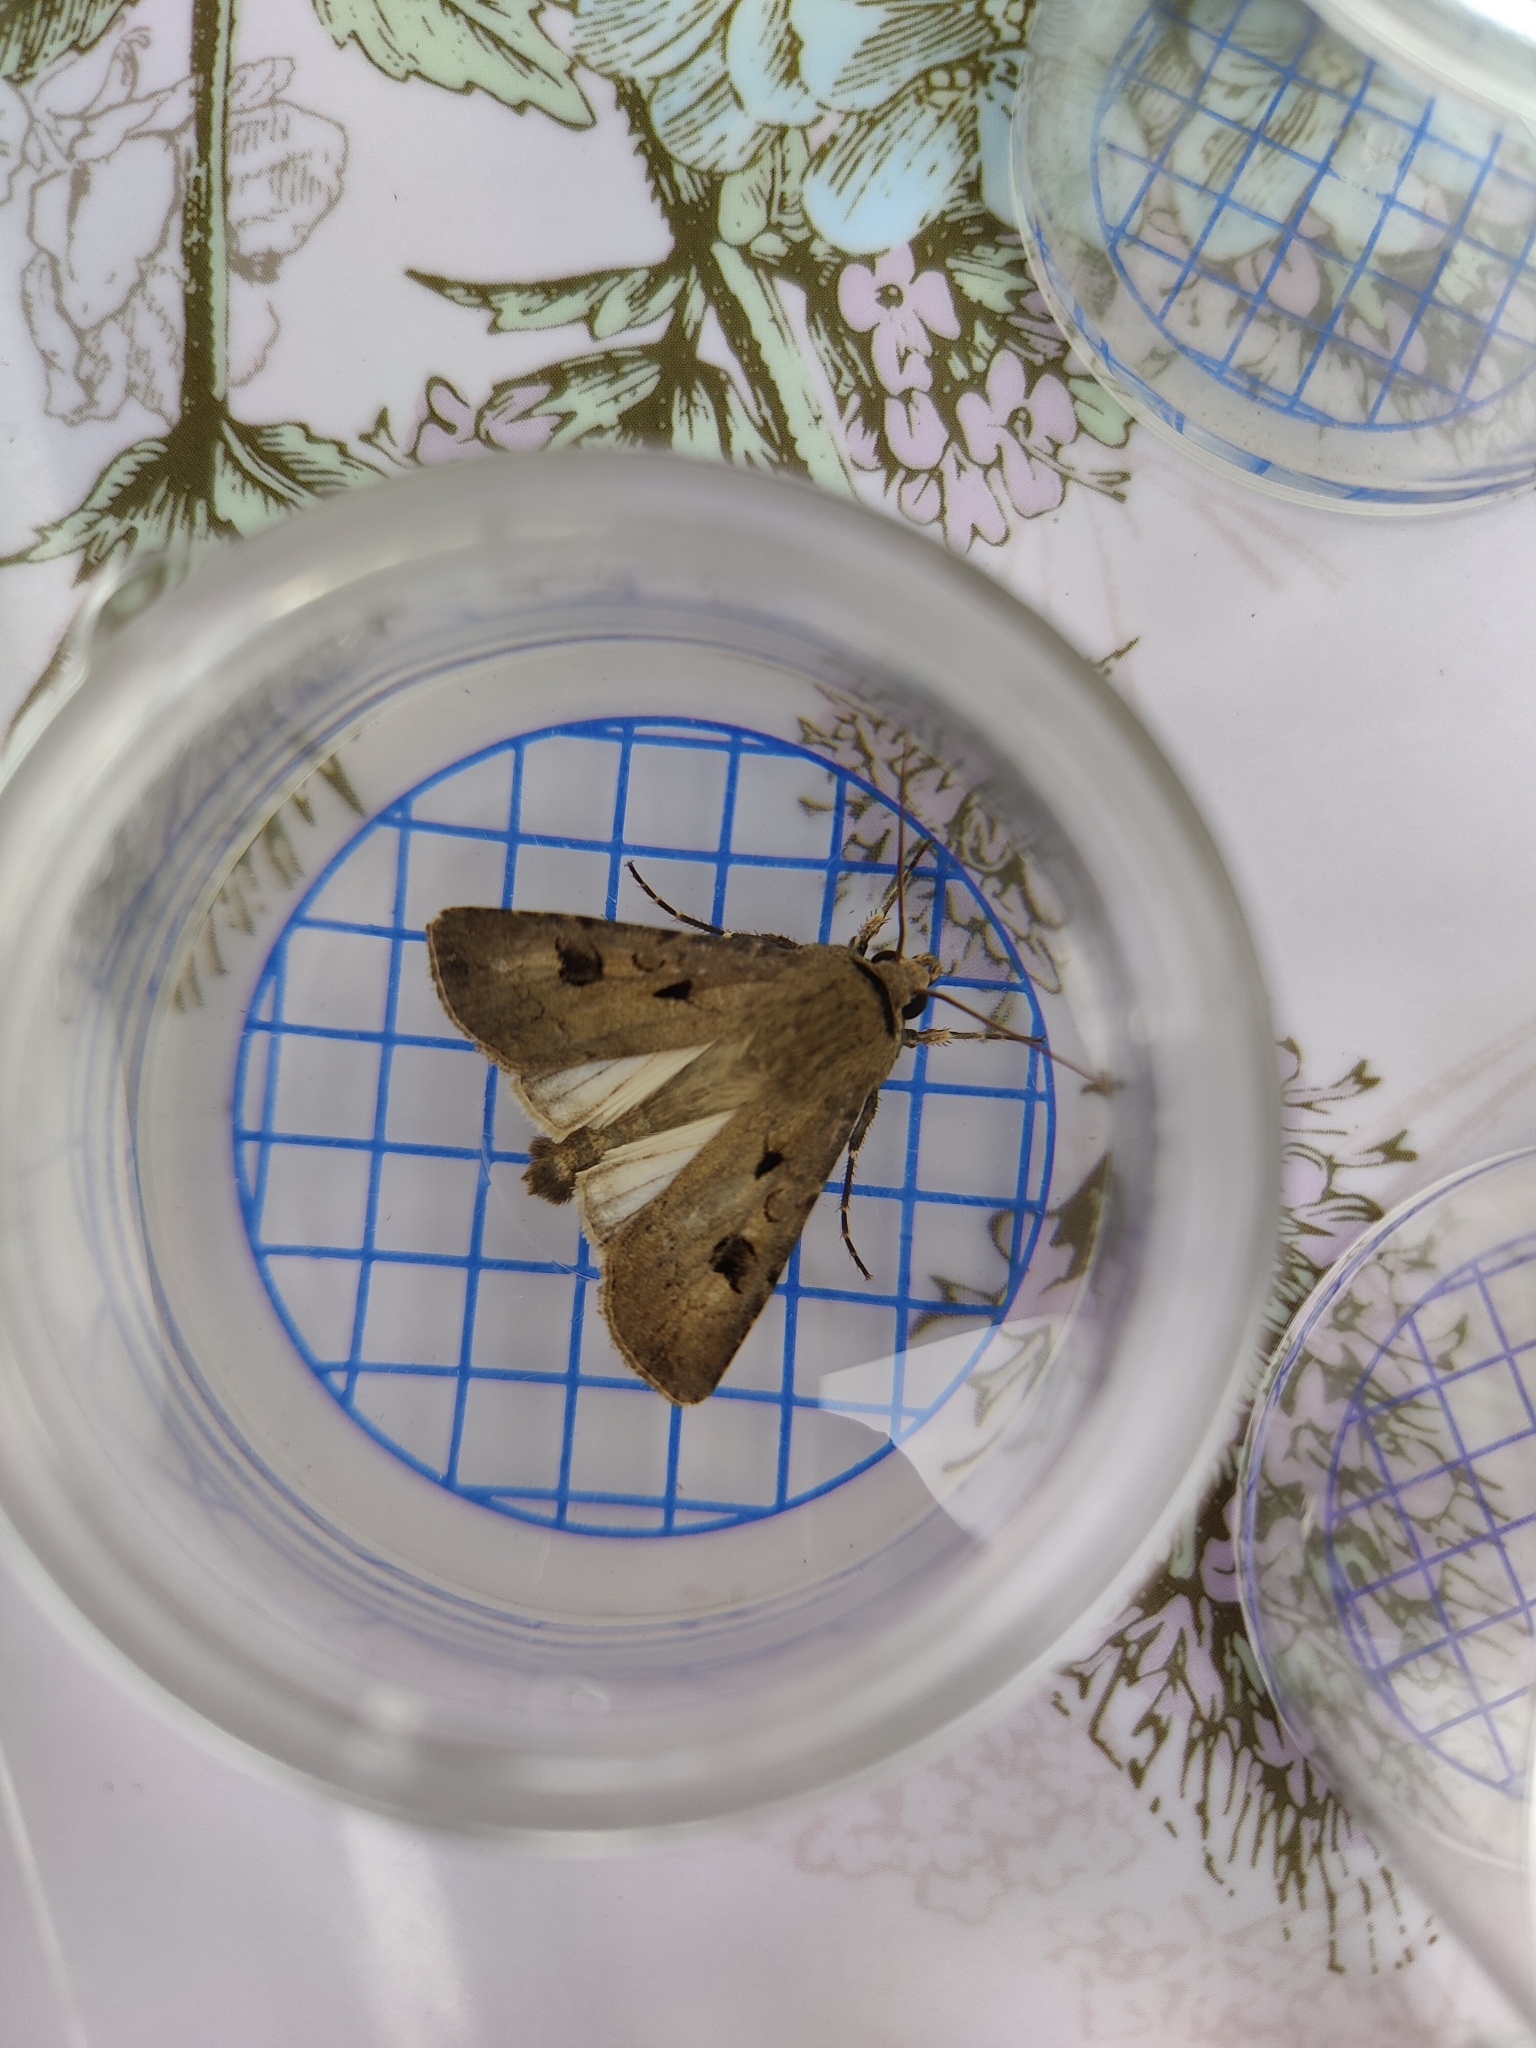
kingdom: Animalia
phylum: Arthropoda
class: Insecta
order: Lepidoptera
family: Noctuidae
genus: Agrotis
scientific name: Agrotis exclamationis
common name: Heart and dart
